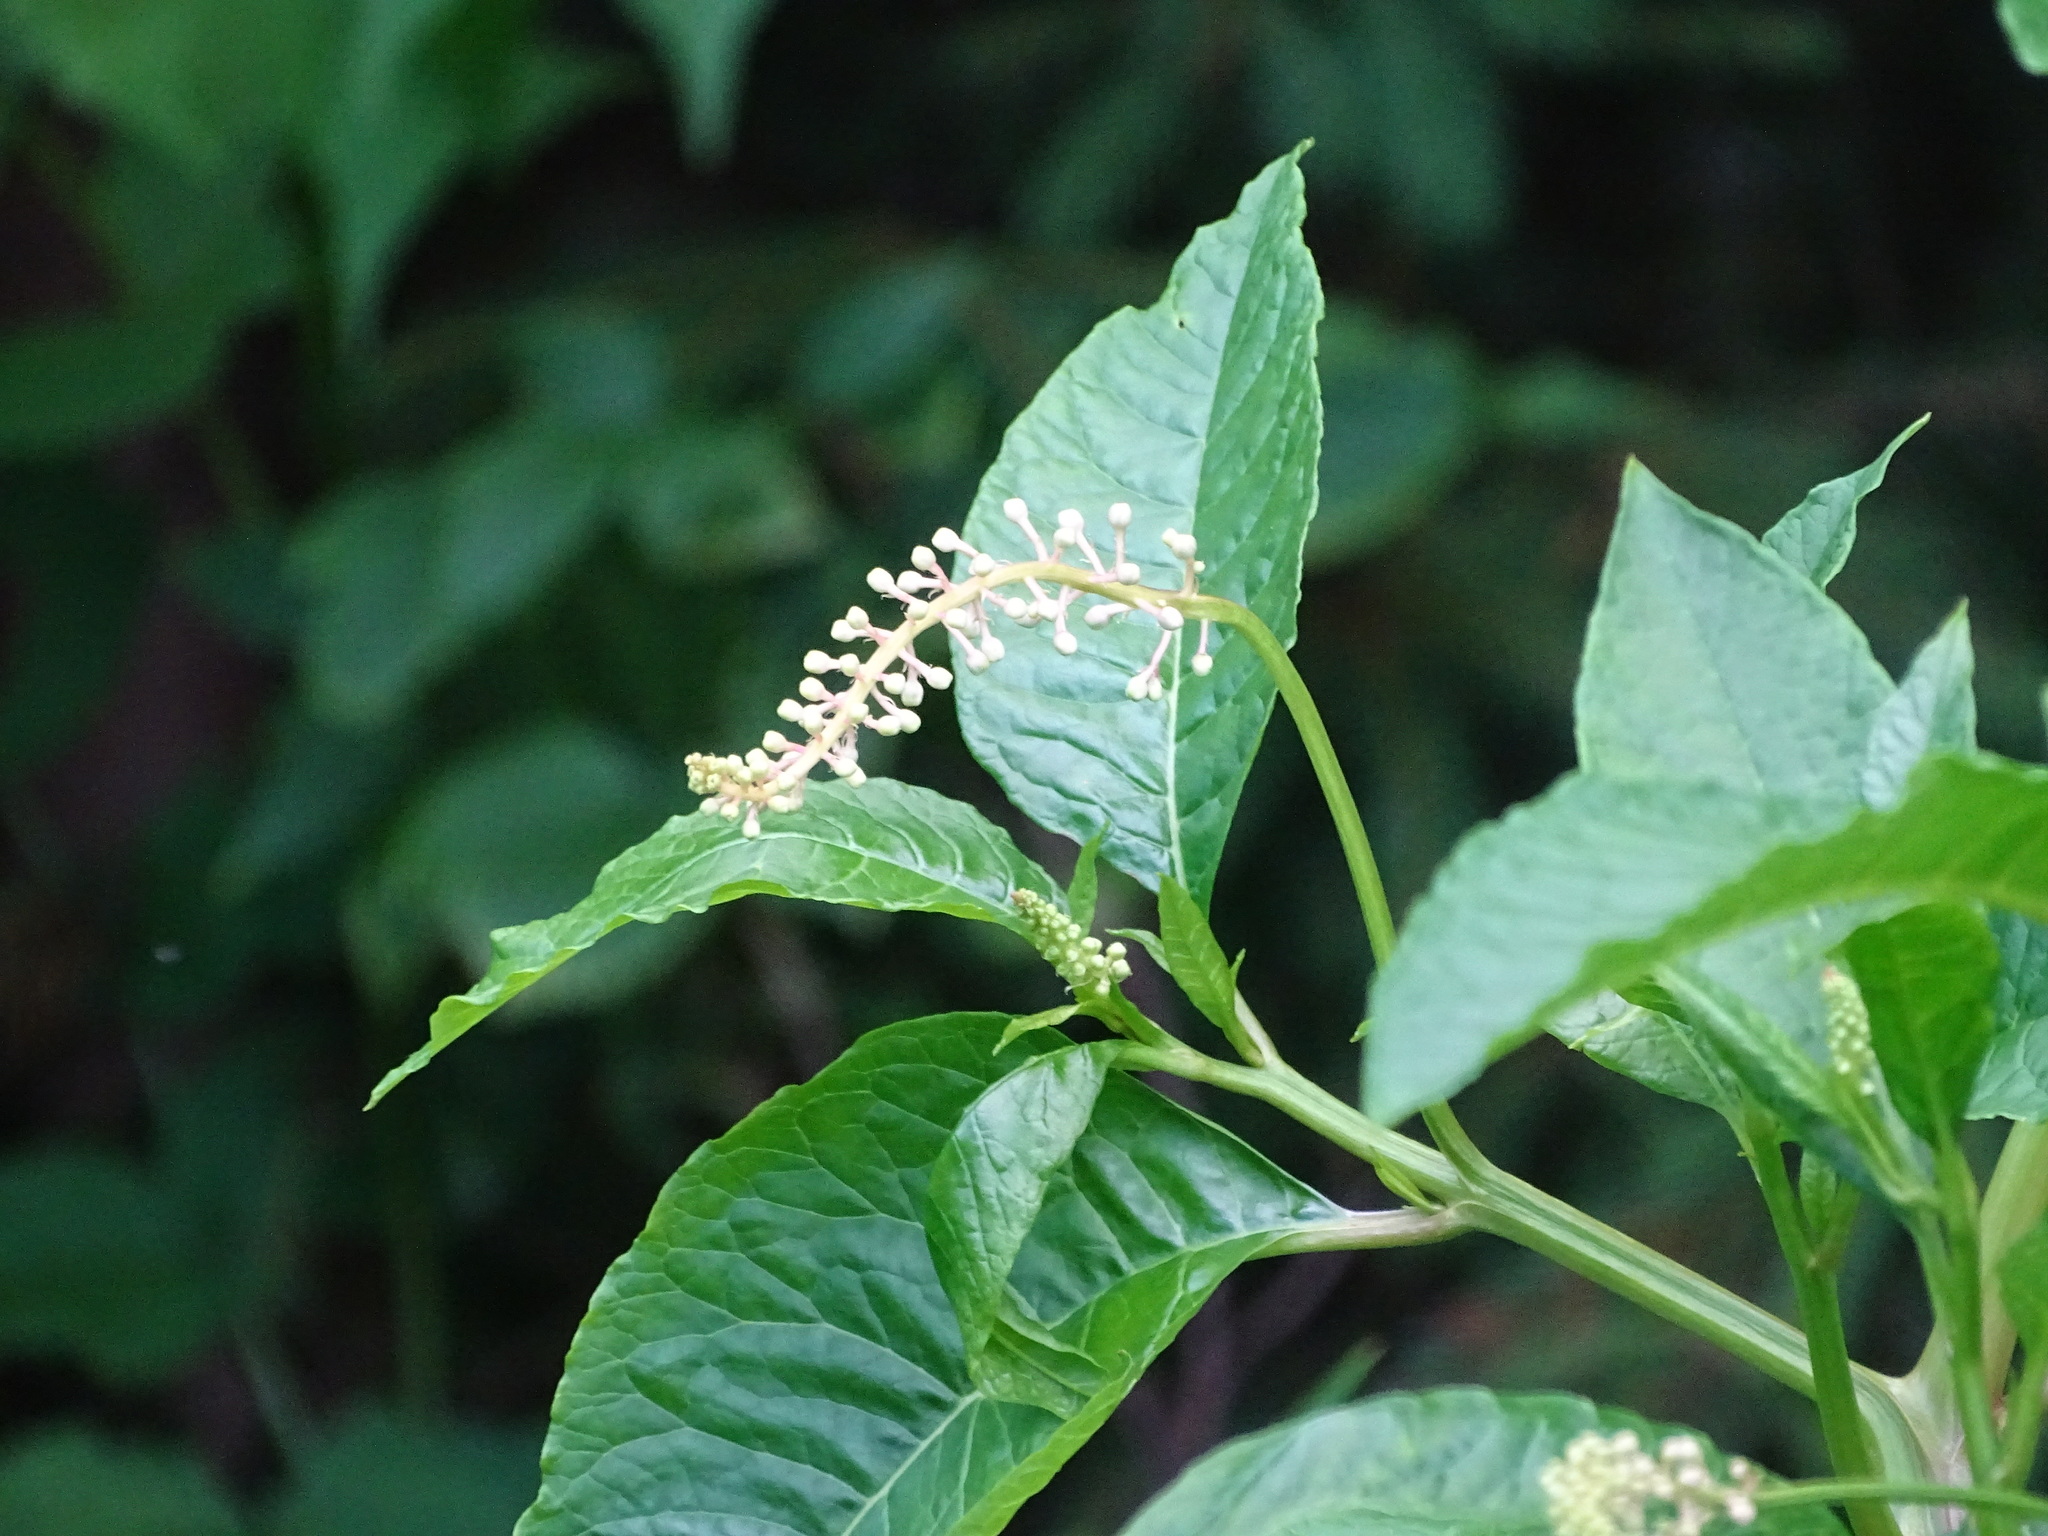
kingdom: Plantae
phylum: Tracheophyta
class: Magnoliopsida
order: Caryophyllales
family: Phytolaccaceae
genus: Phytolacca
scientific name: Phytolacca americana
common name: American pokeweed
